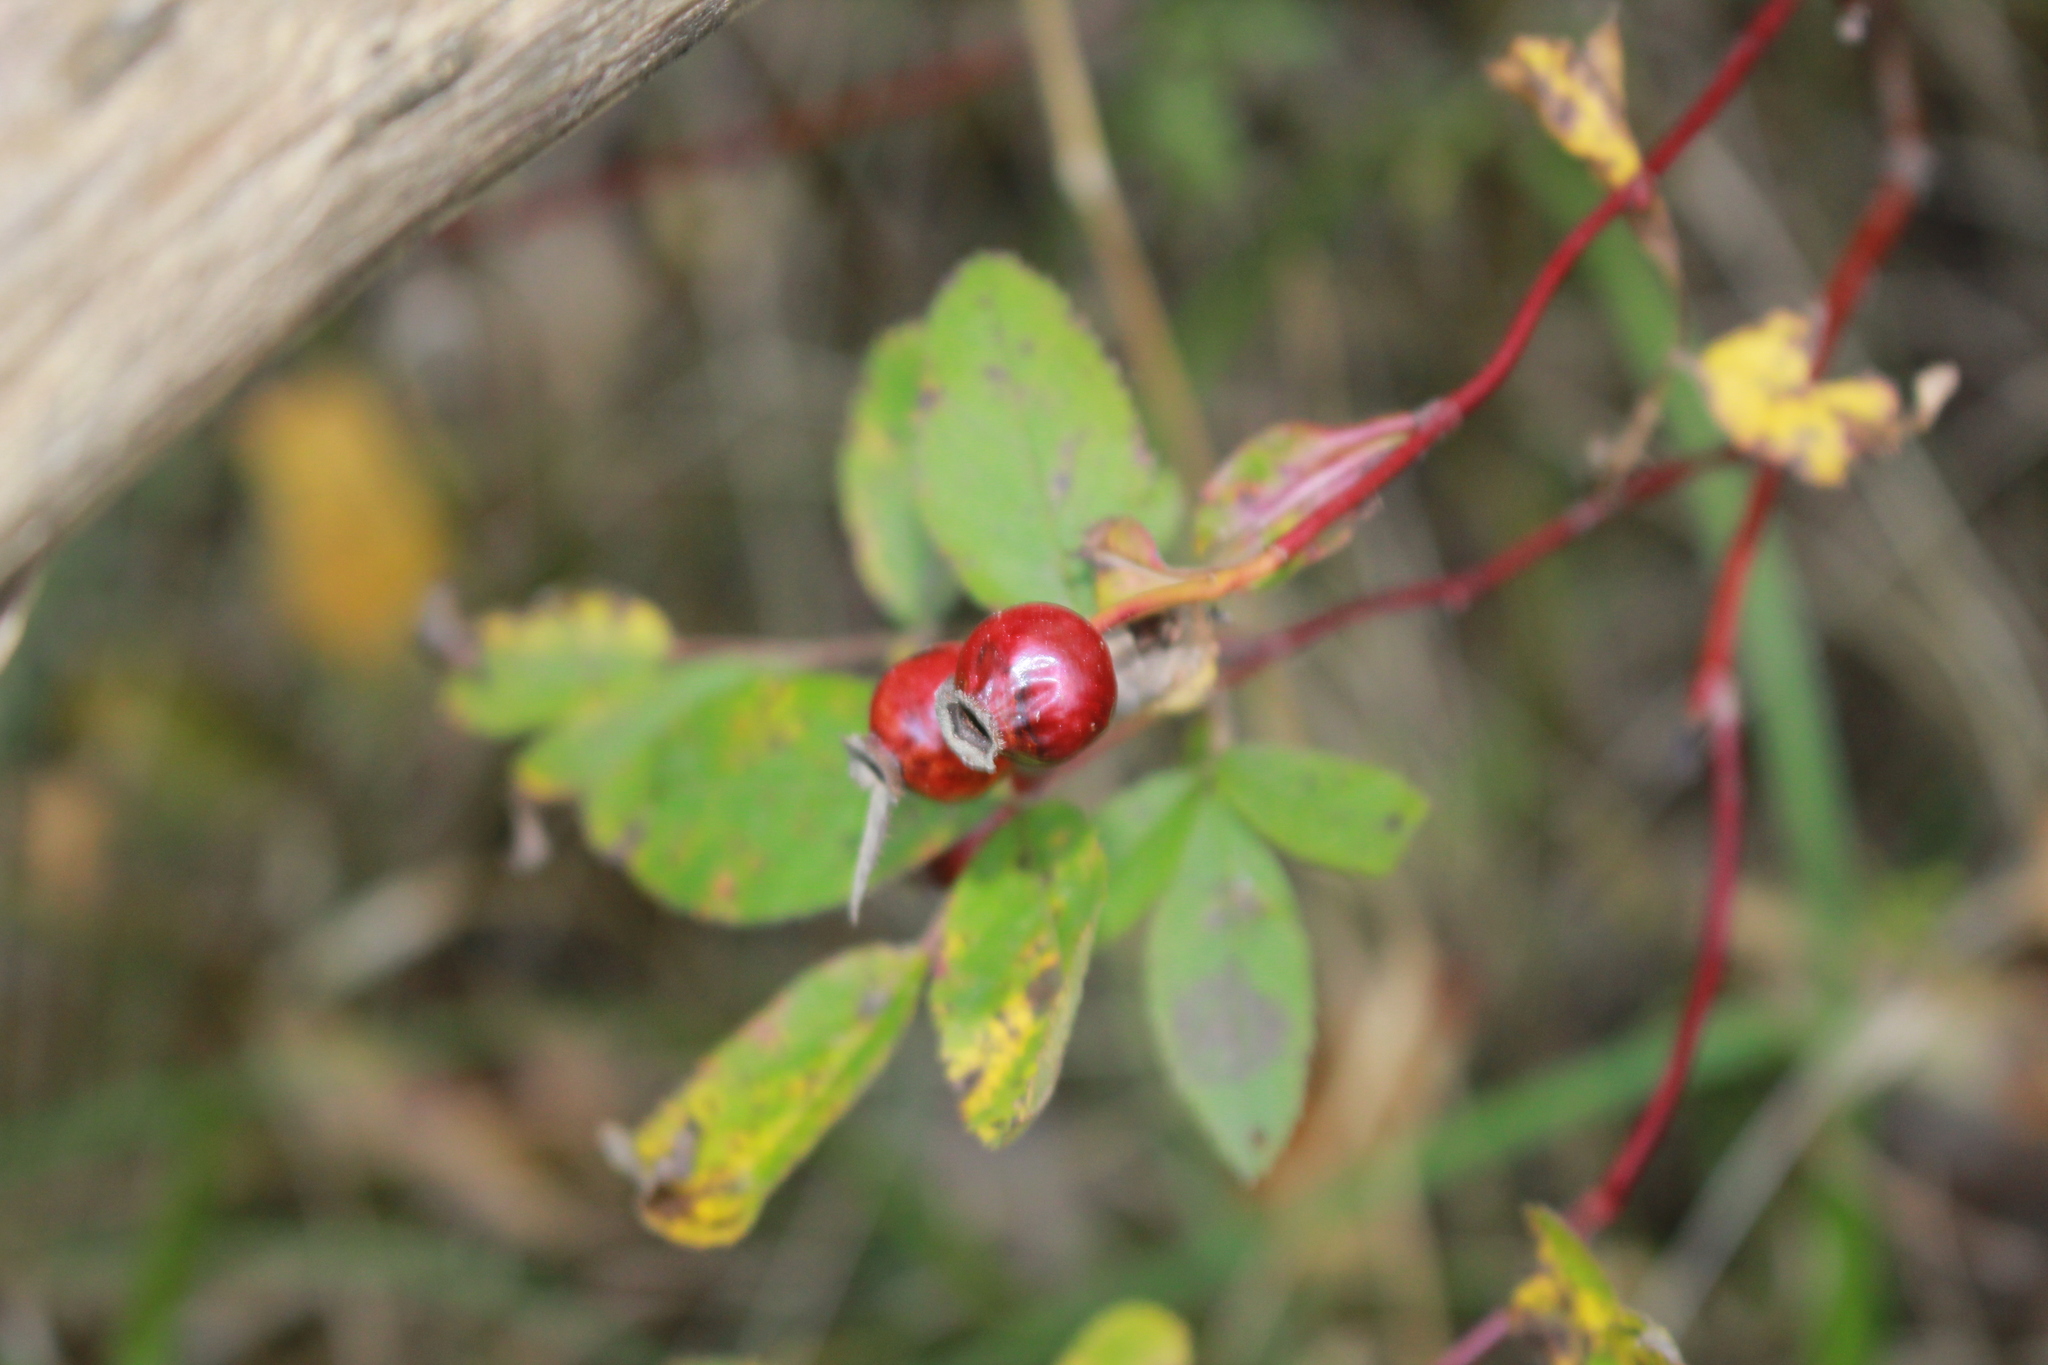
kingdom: Plantae
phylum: Tracheophyta
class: Magnoliopsida
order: Rosales
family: Rosaceae
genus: Rosa
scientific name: Rosa blanda
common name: Smooth rose
